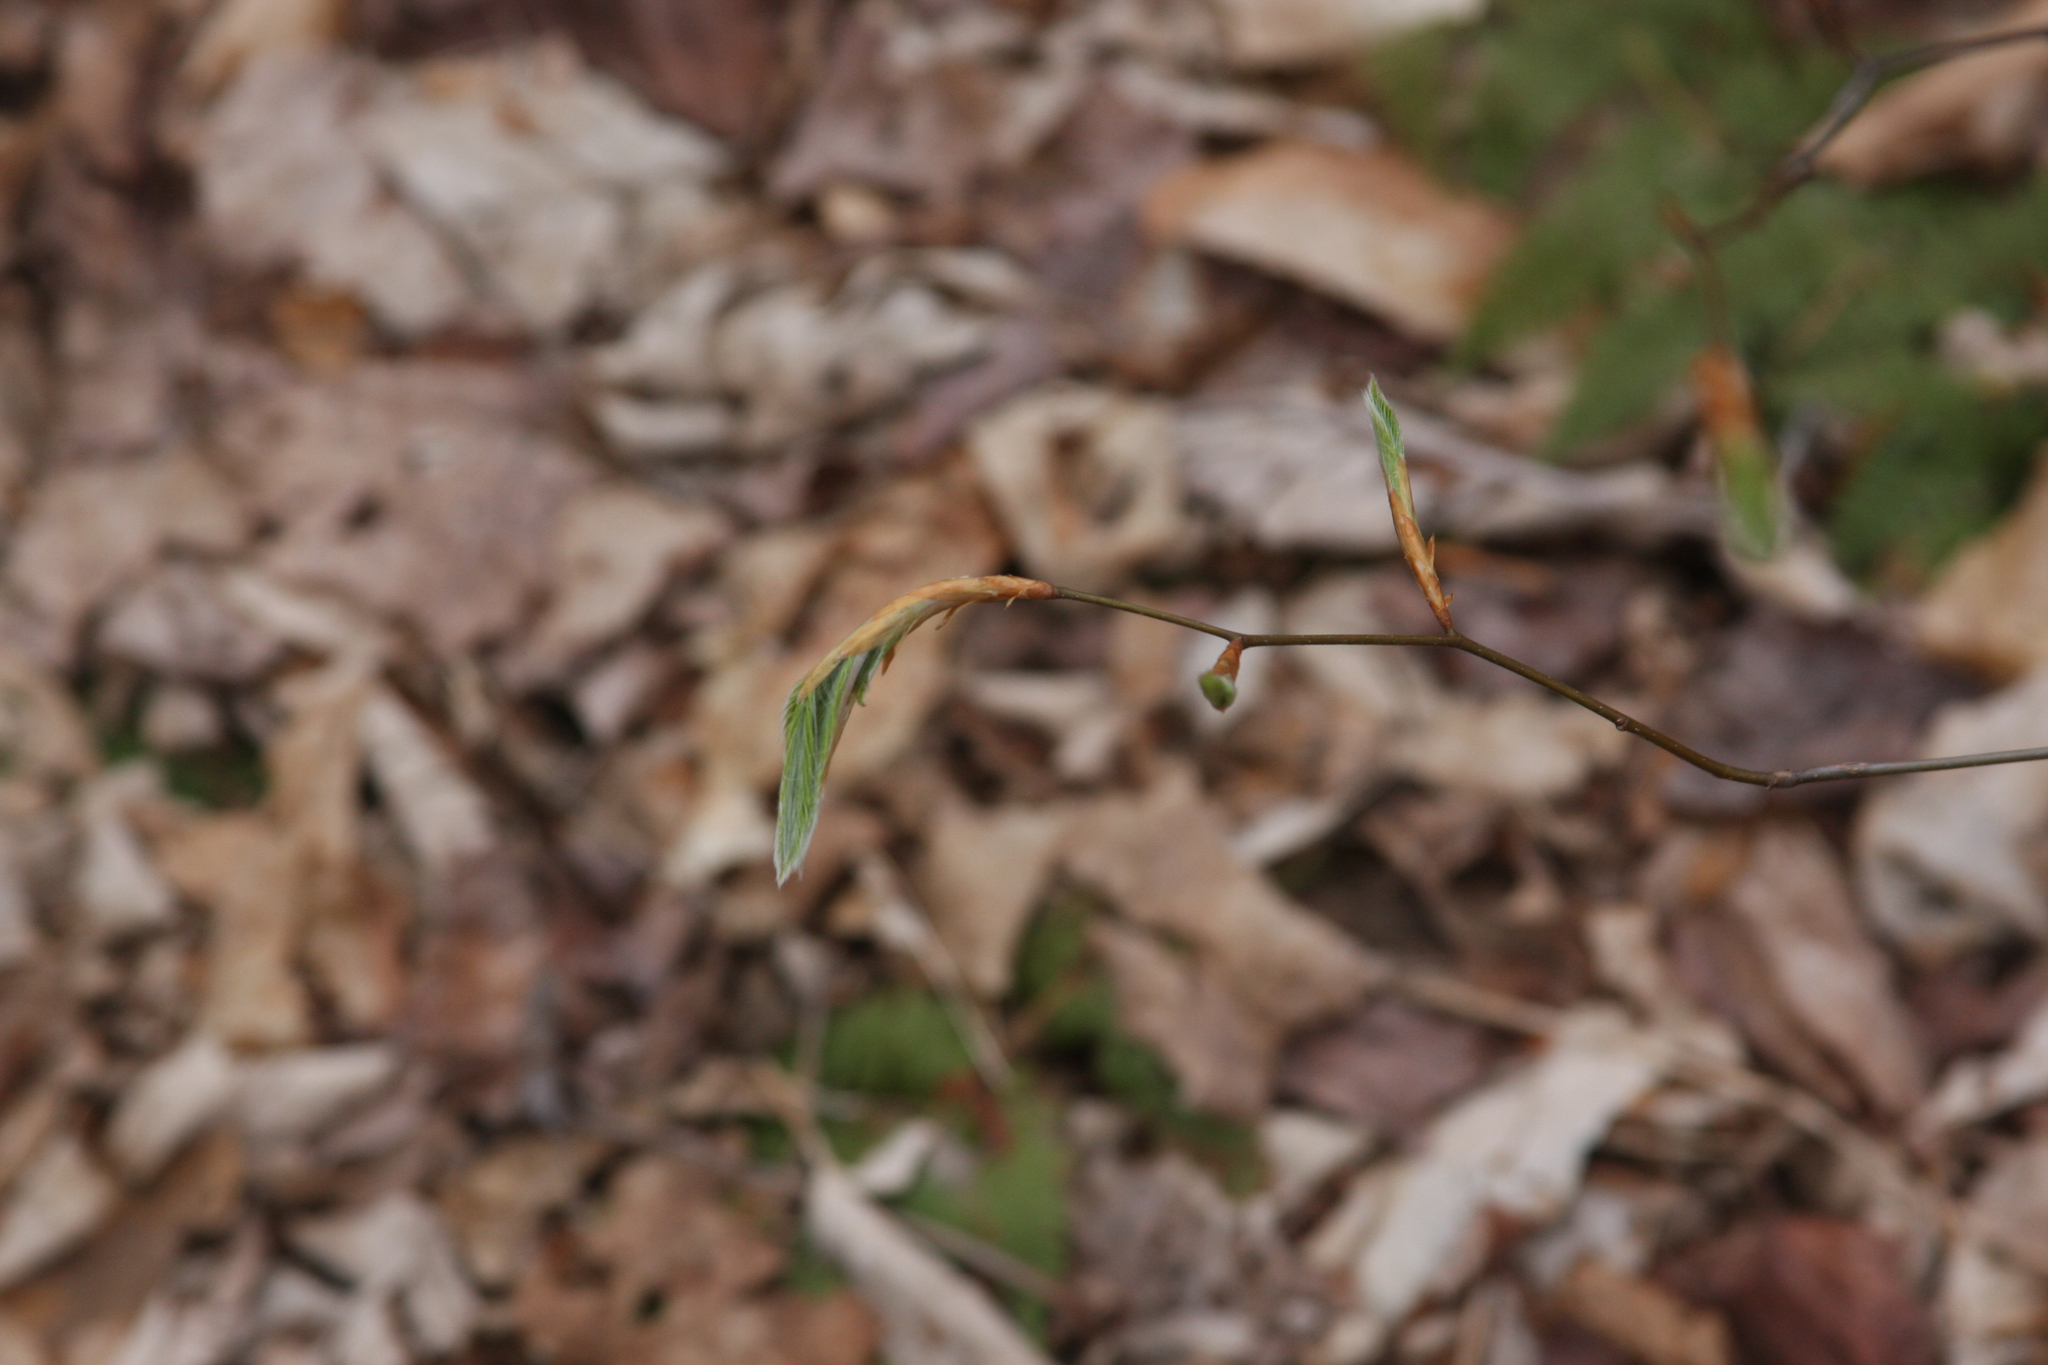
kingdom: Plantae
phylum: Tracheophyta
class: Magnoliopsida
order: Fagales
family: Fagaceae
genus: Fagus
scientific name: Fagus grandifolia
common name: American beech
